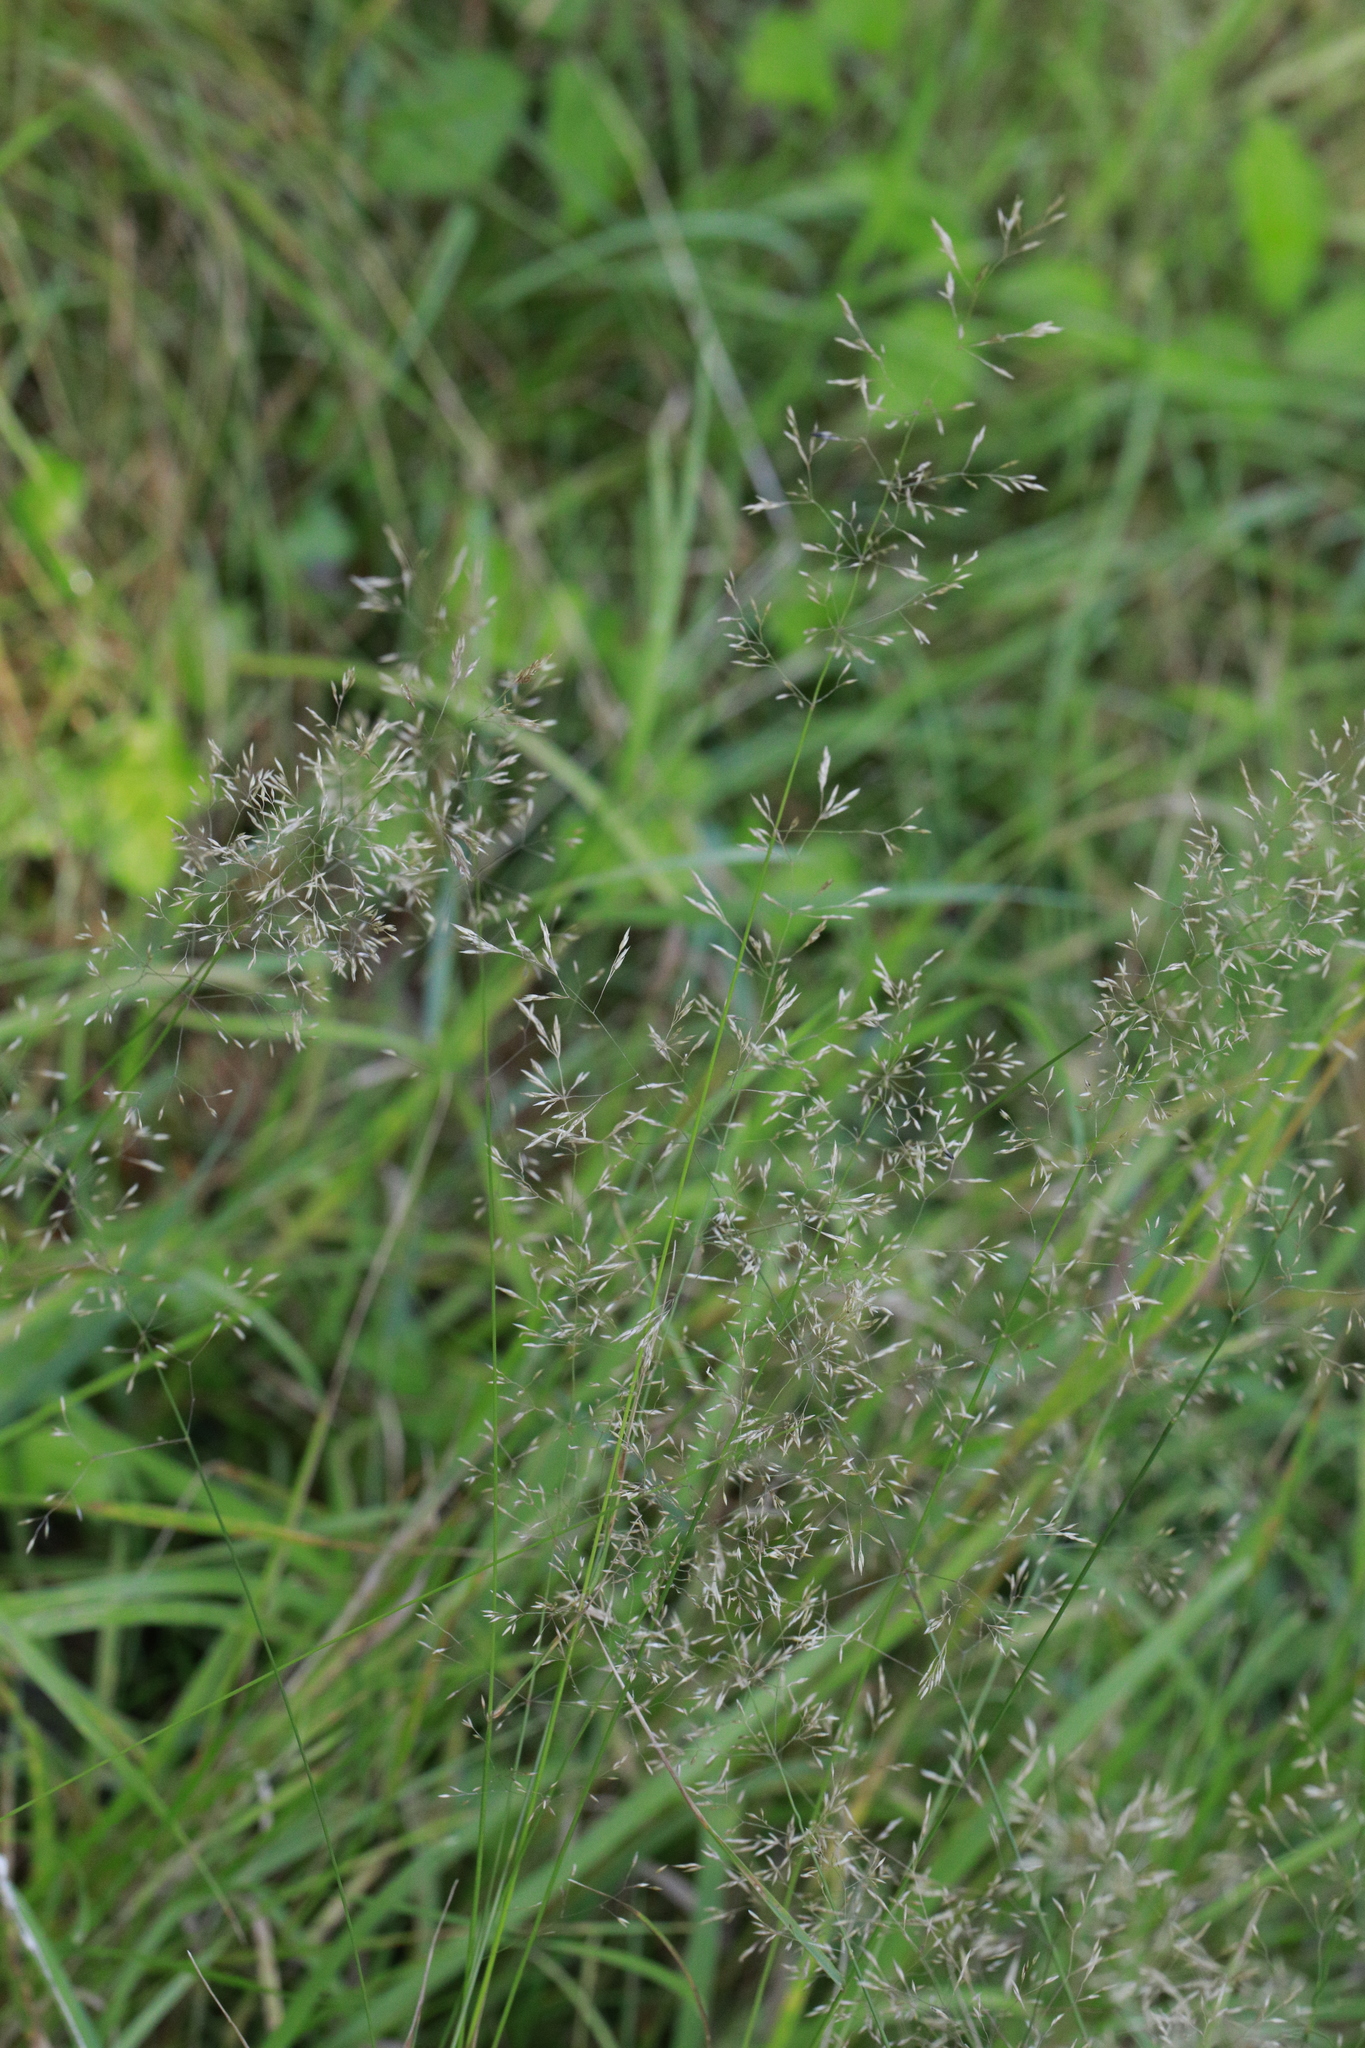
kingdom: Plantae
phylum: Tracheophyta
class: Liliopsida
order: Poales
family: Poaceae
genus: Agrostis
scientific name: Agrostis capillaris
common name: Colonial bentgrass
